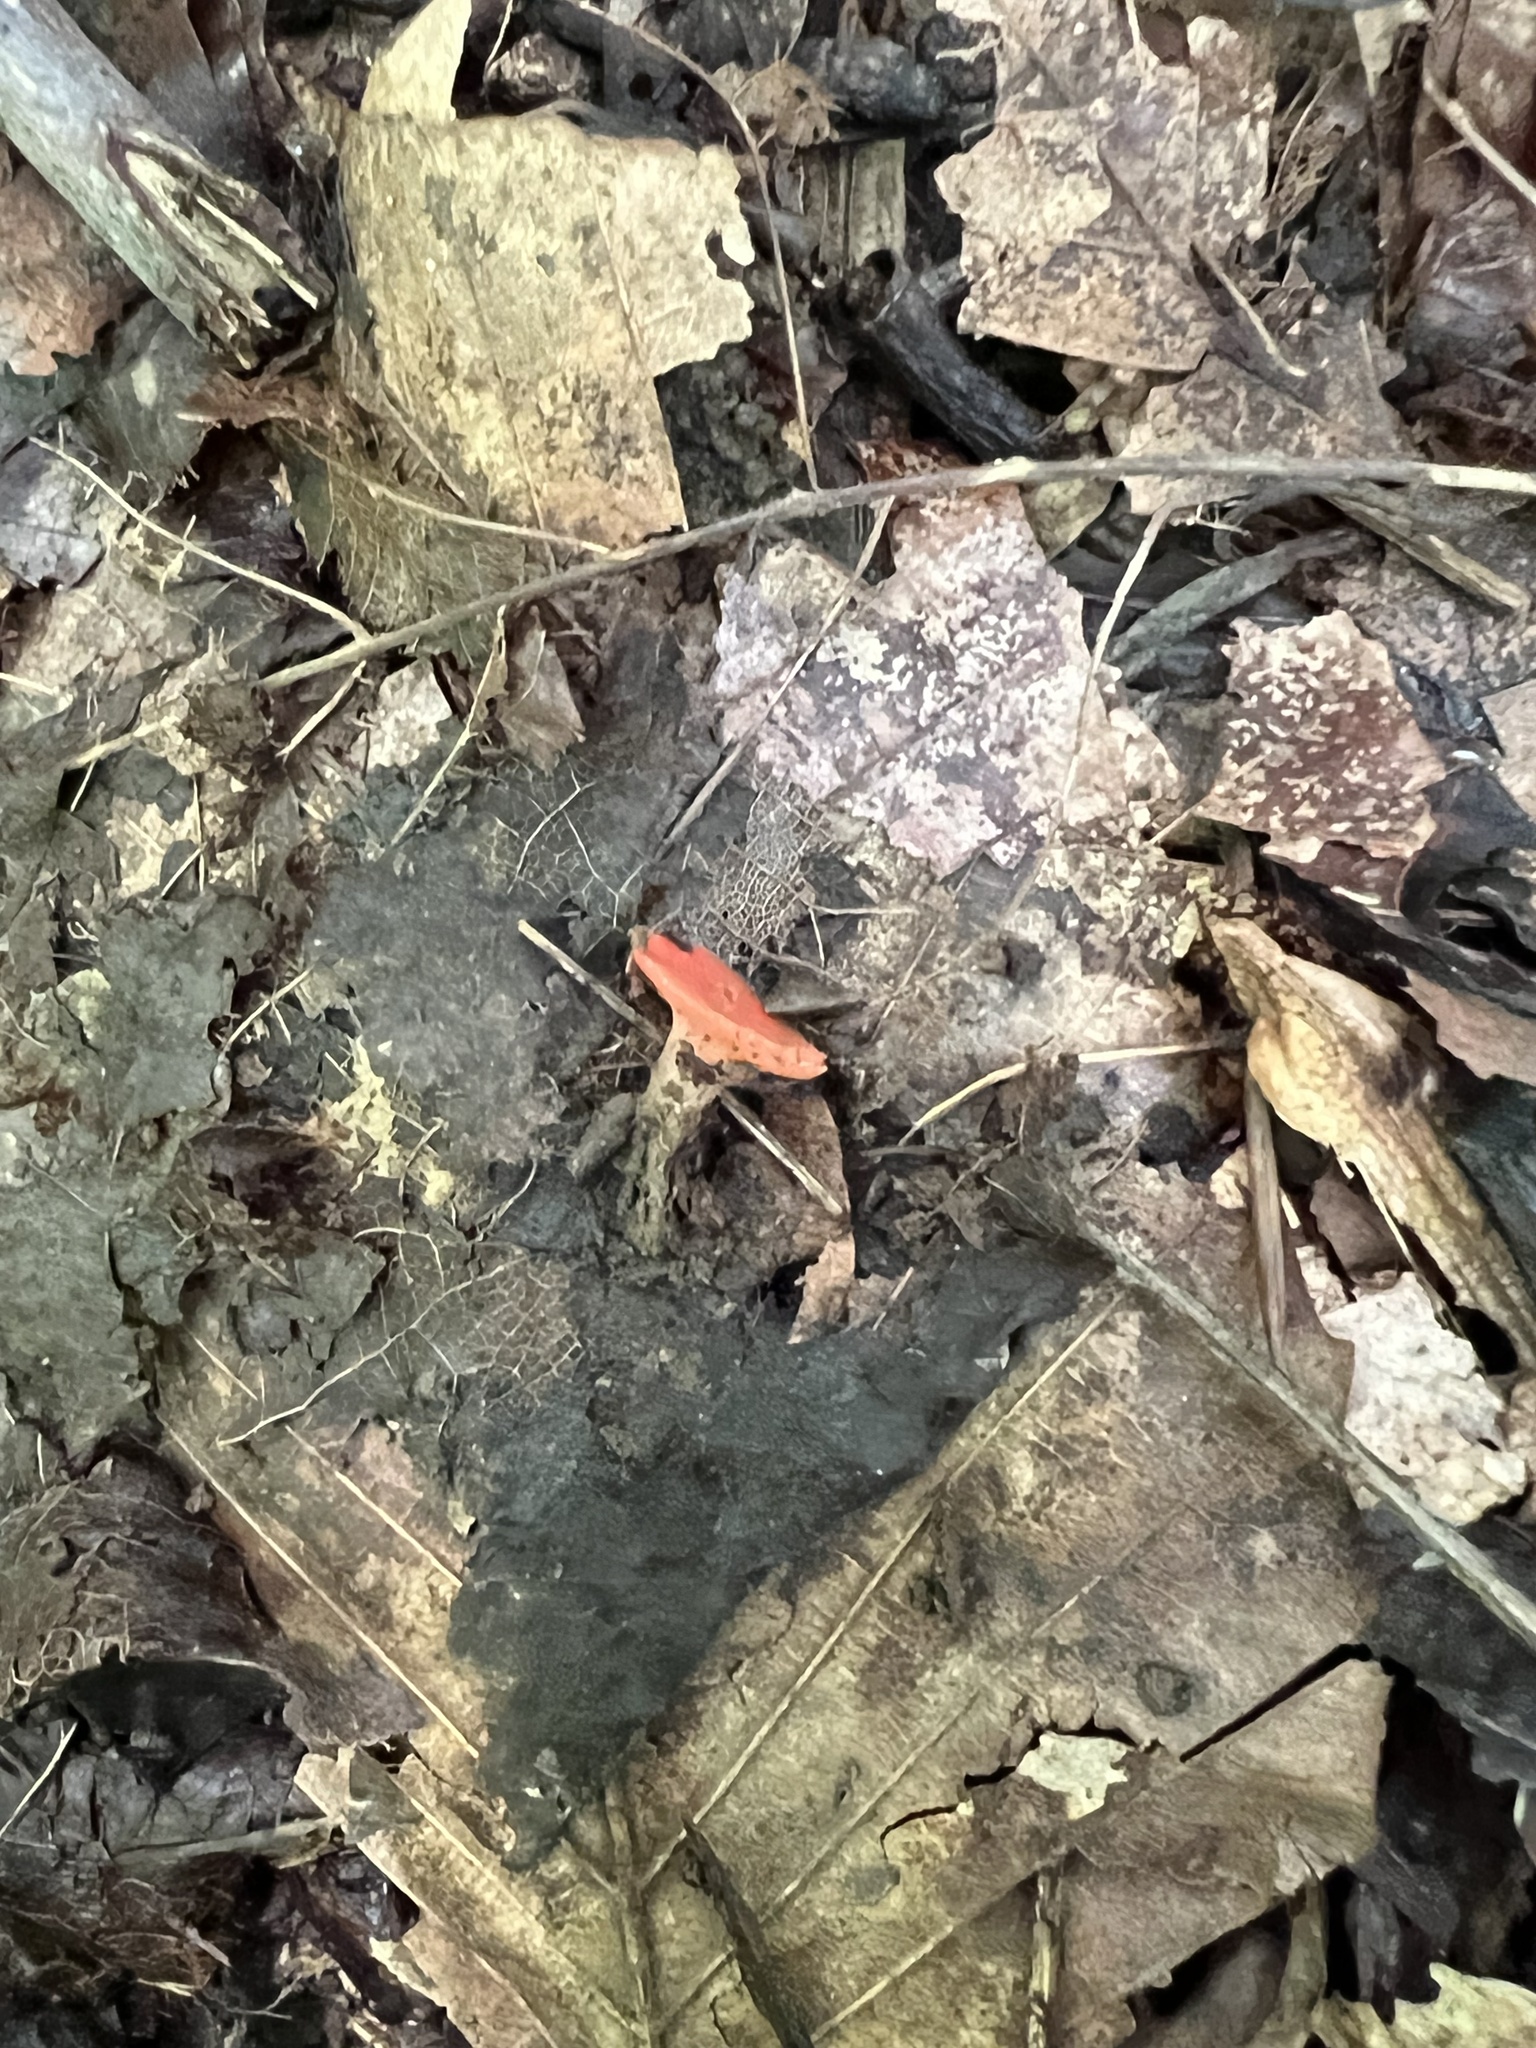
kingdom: Fungi
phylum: Ascomycota
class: Pezizomycetes
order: Pezizales
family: Sarcoscyphaceae
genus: Sarcoscypha
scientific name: Sarcoscypha occidentalis
